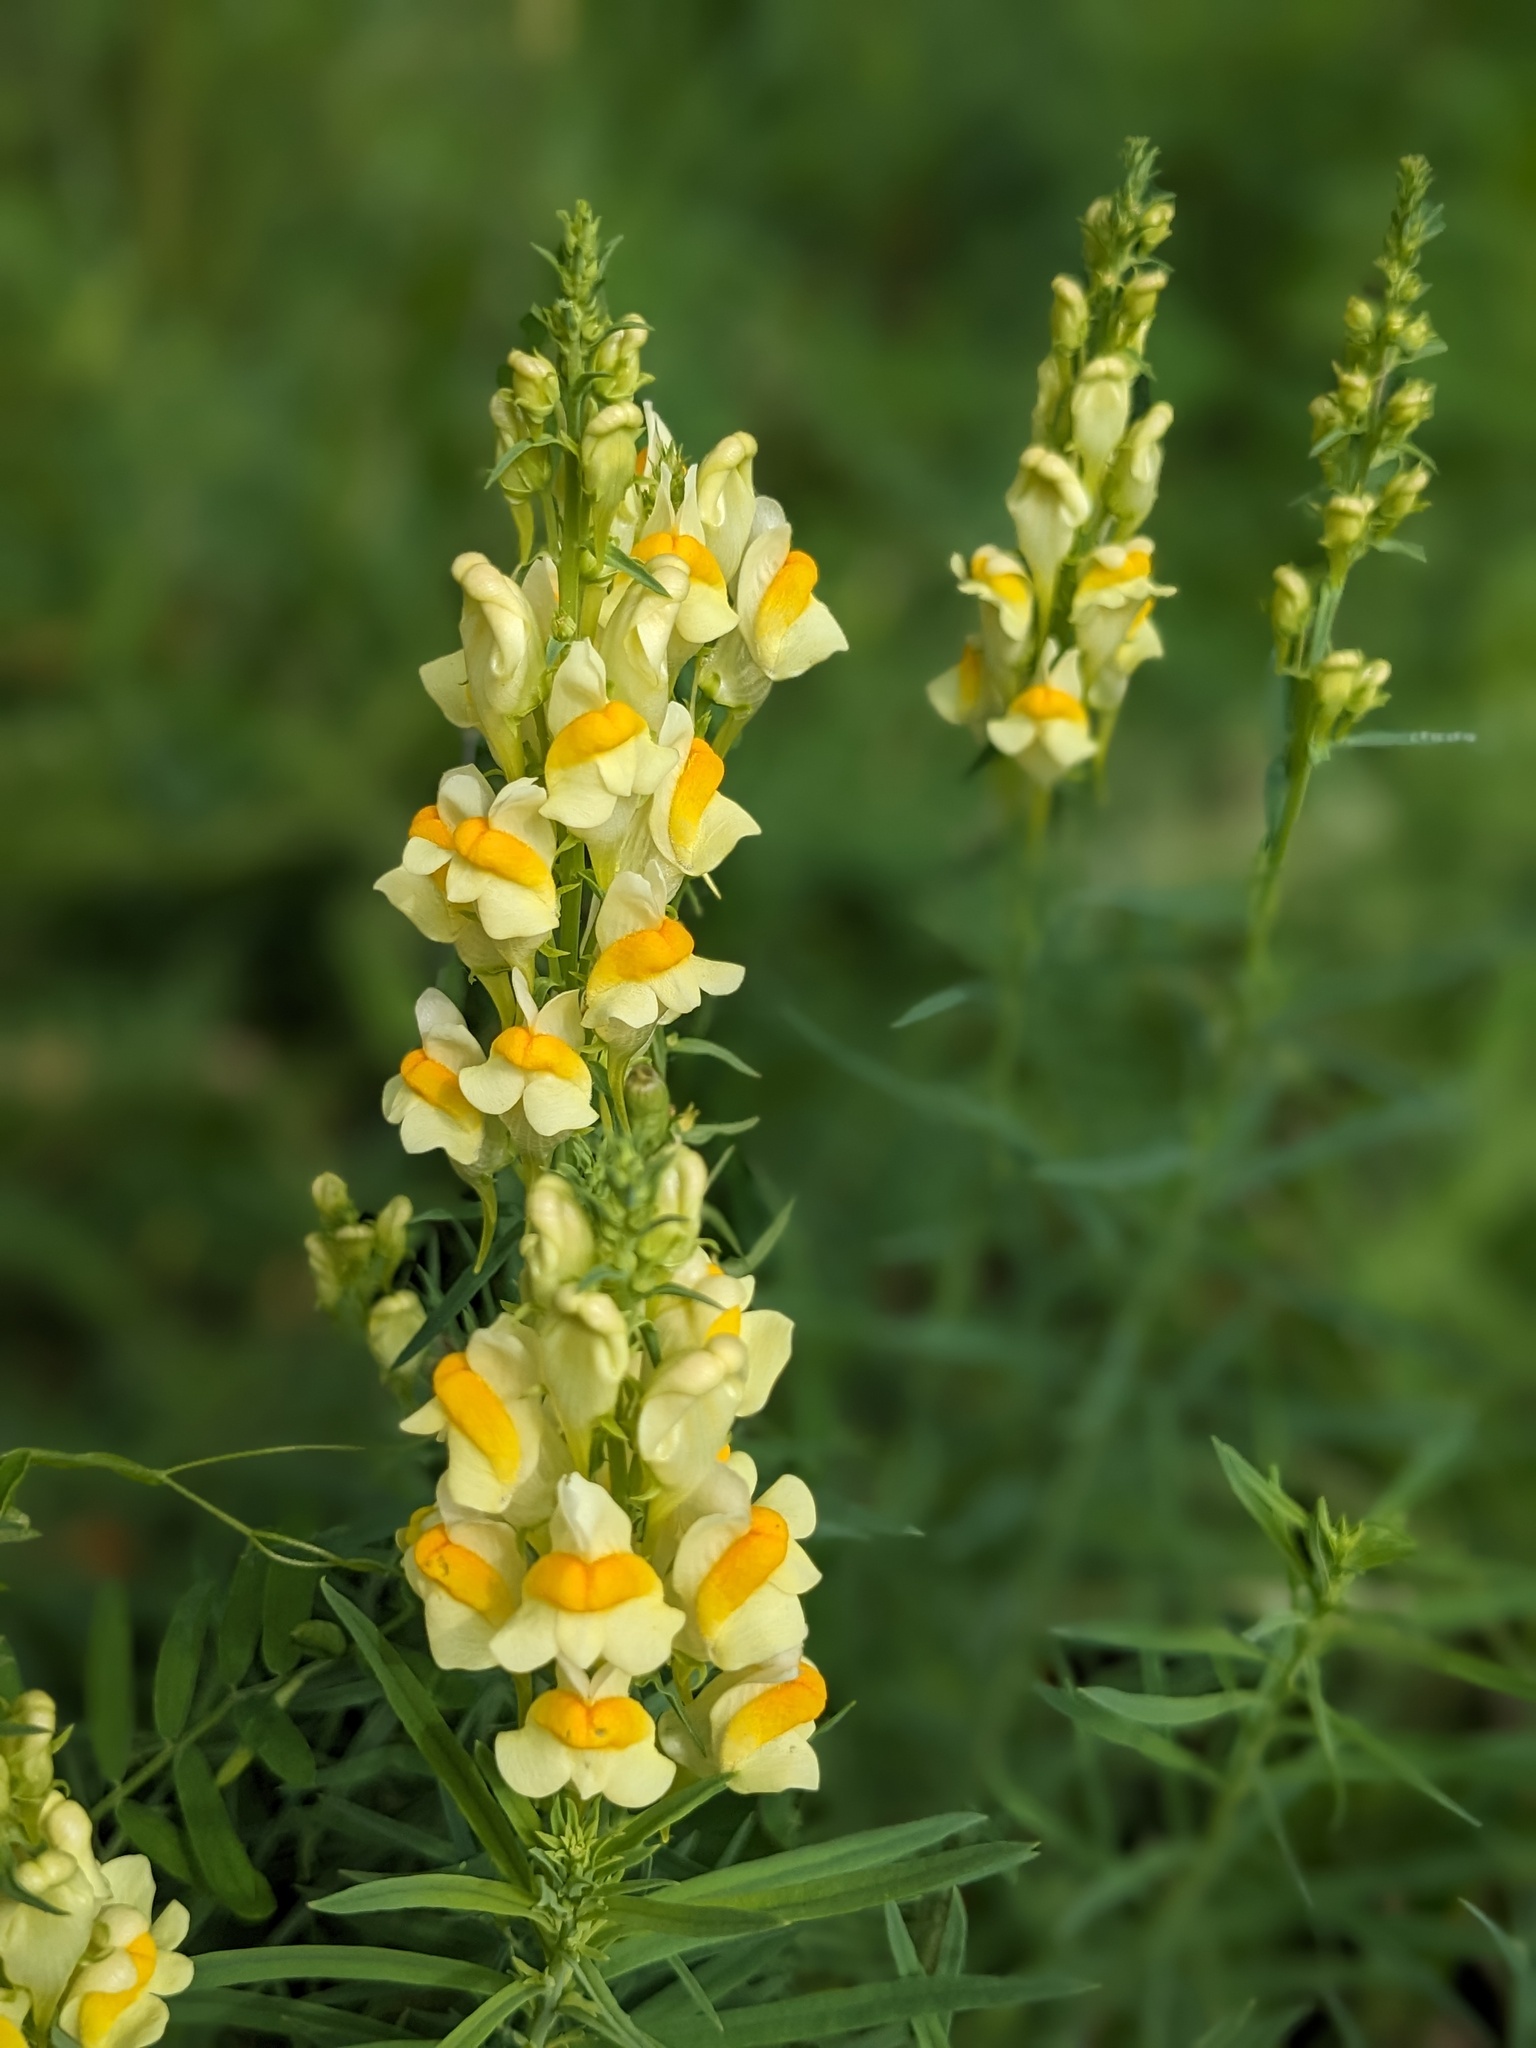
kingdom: Plantae
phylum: Tracheophyta
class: Magnoliopsida
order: Lamiales
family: Plantaginaceae
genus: Linaria
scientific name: Linaria vulgaris
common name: Butter and eggs
